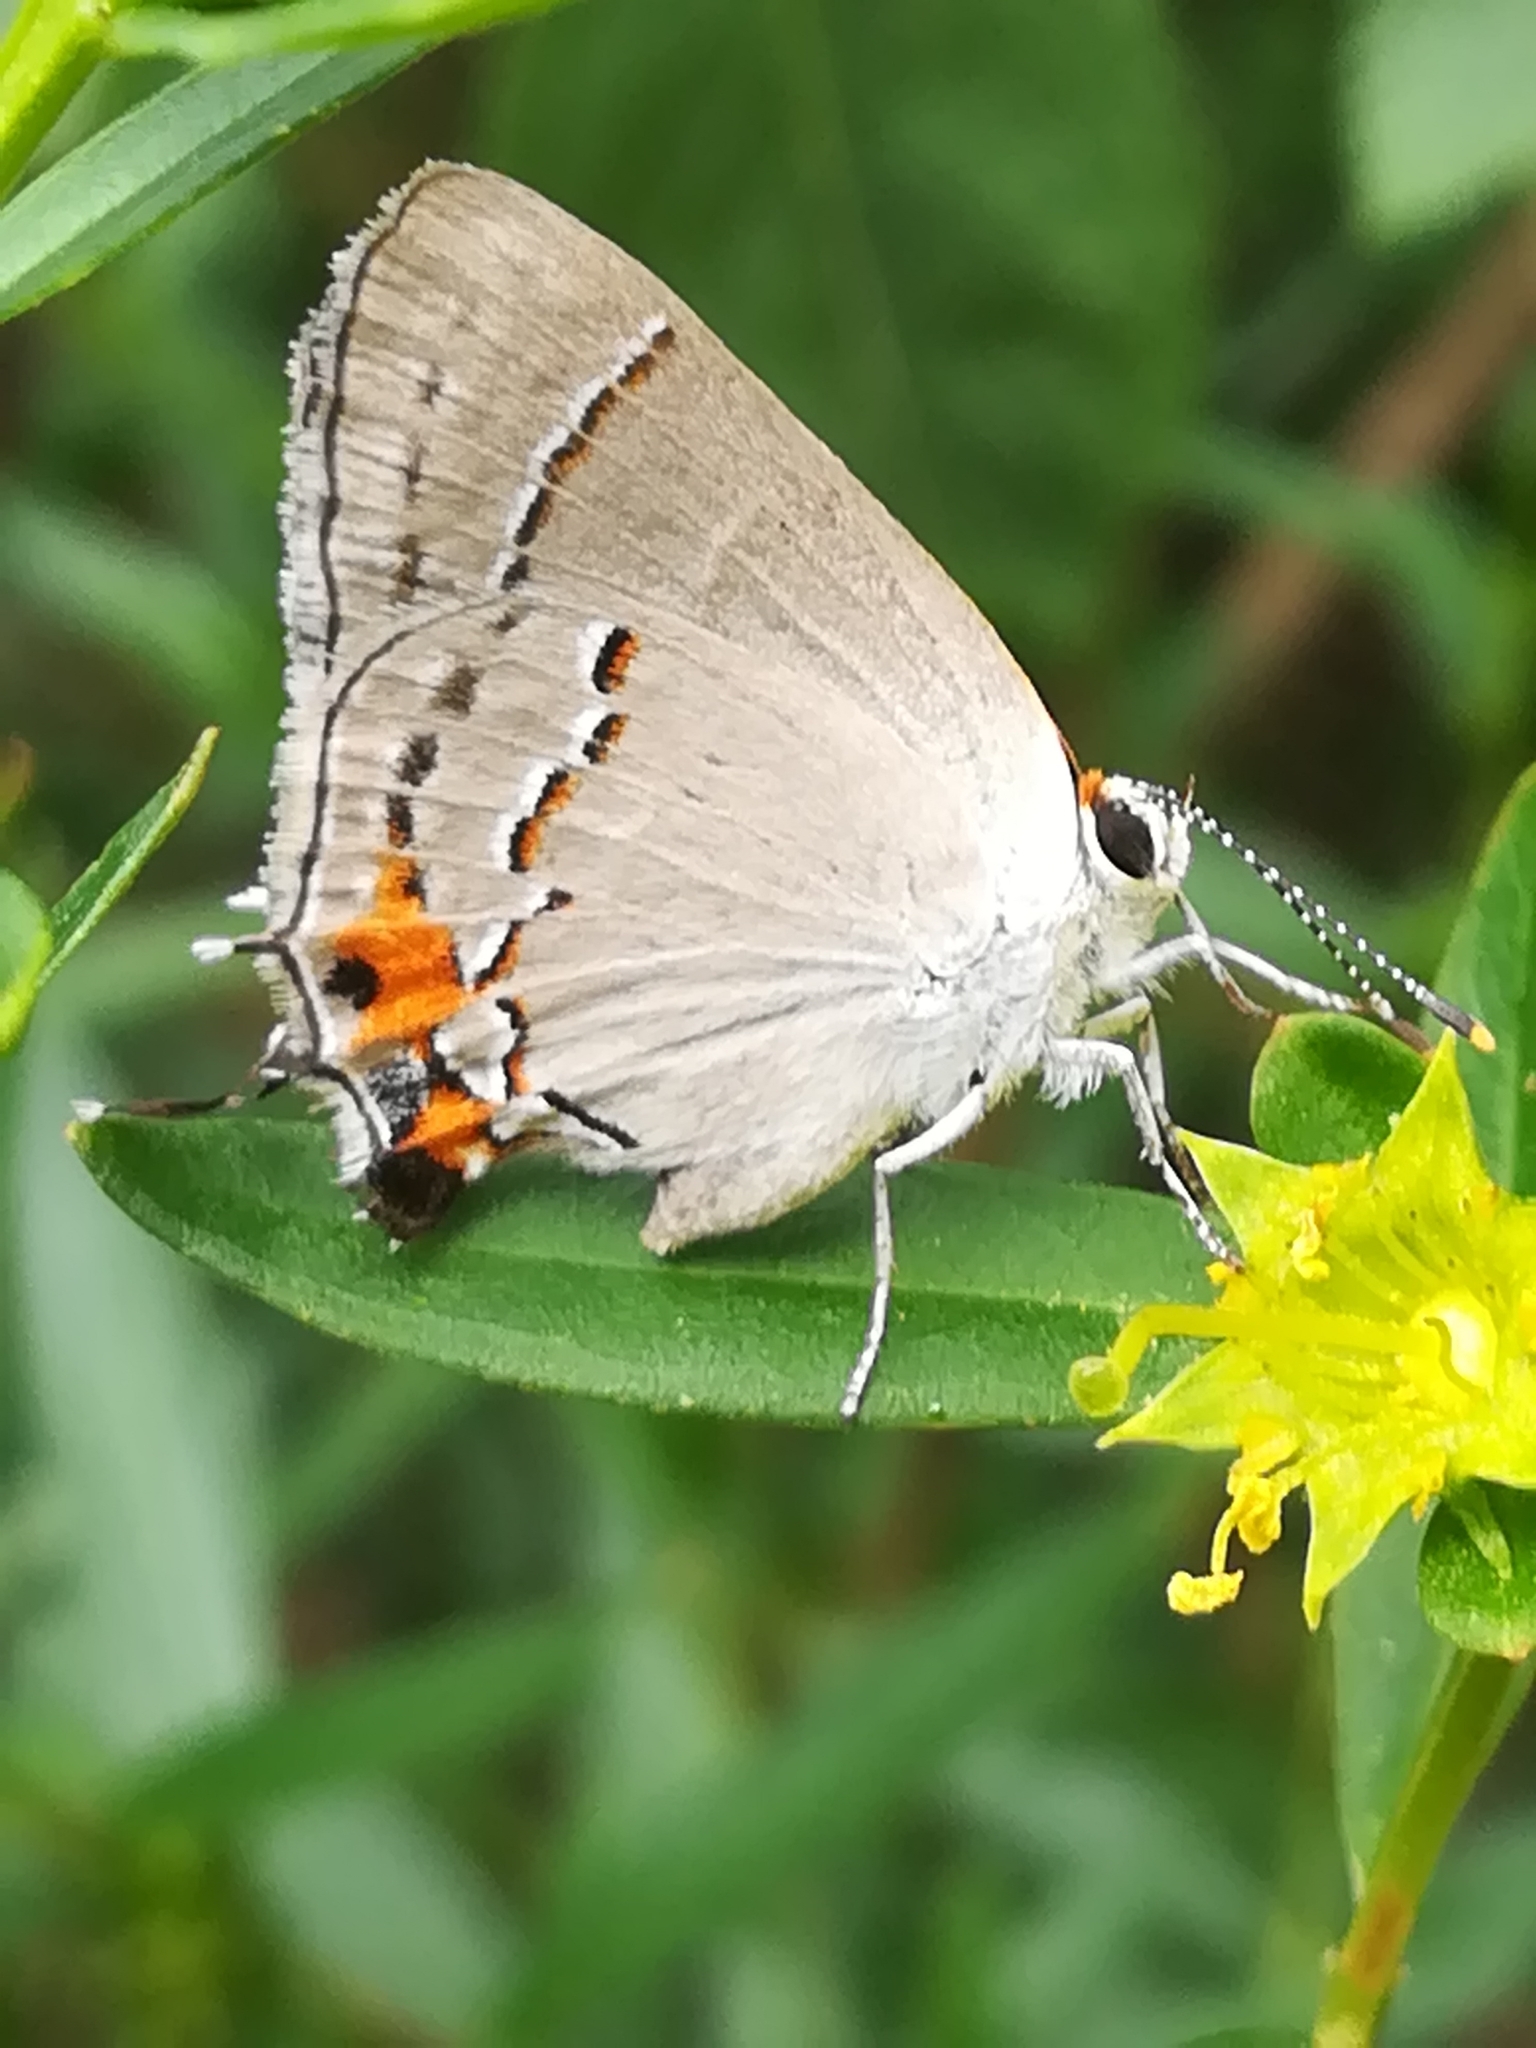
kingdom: Animalia
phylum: Arthropoda
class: Insecta
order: Lepidoptera
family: Lycaenidae
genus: Strymon
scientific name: Strymon melinus
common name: Gray hairstreak
